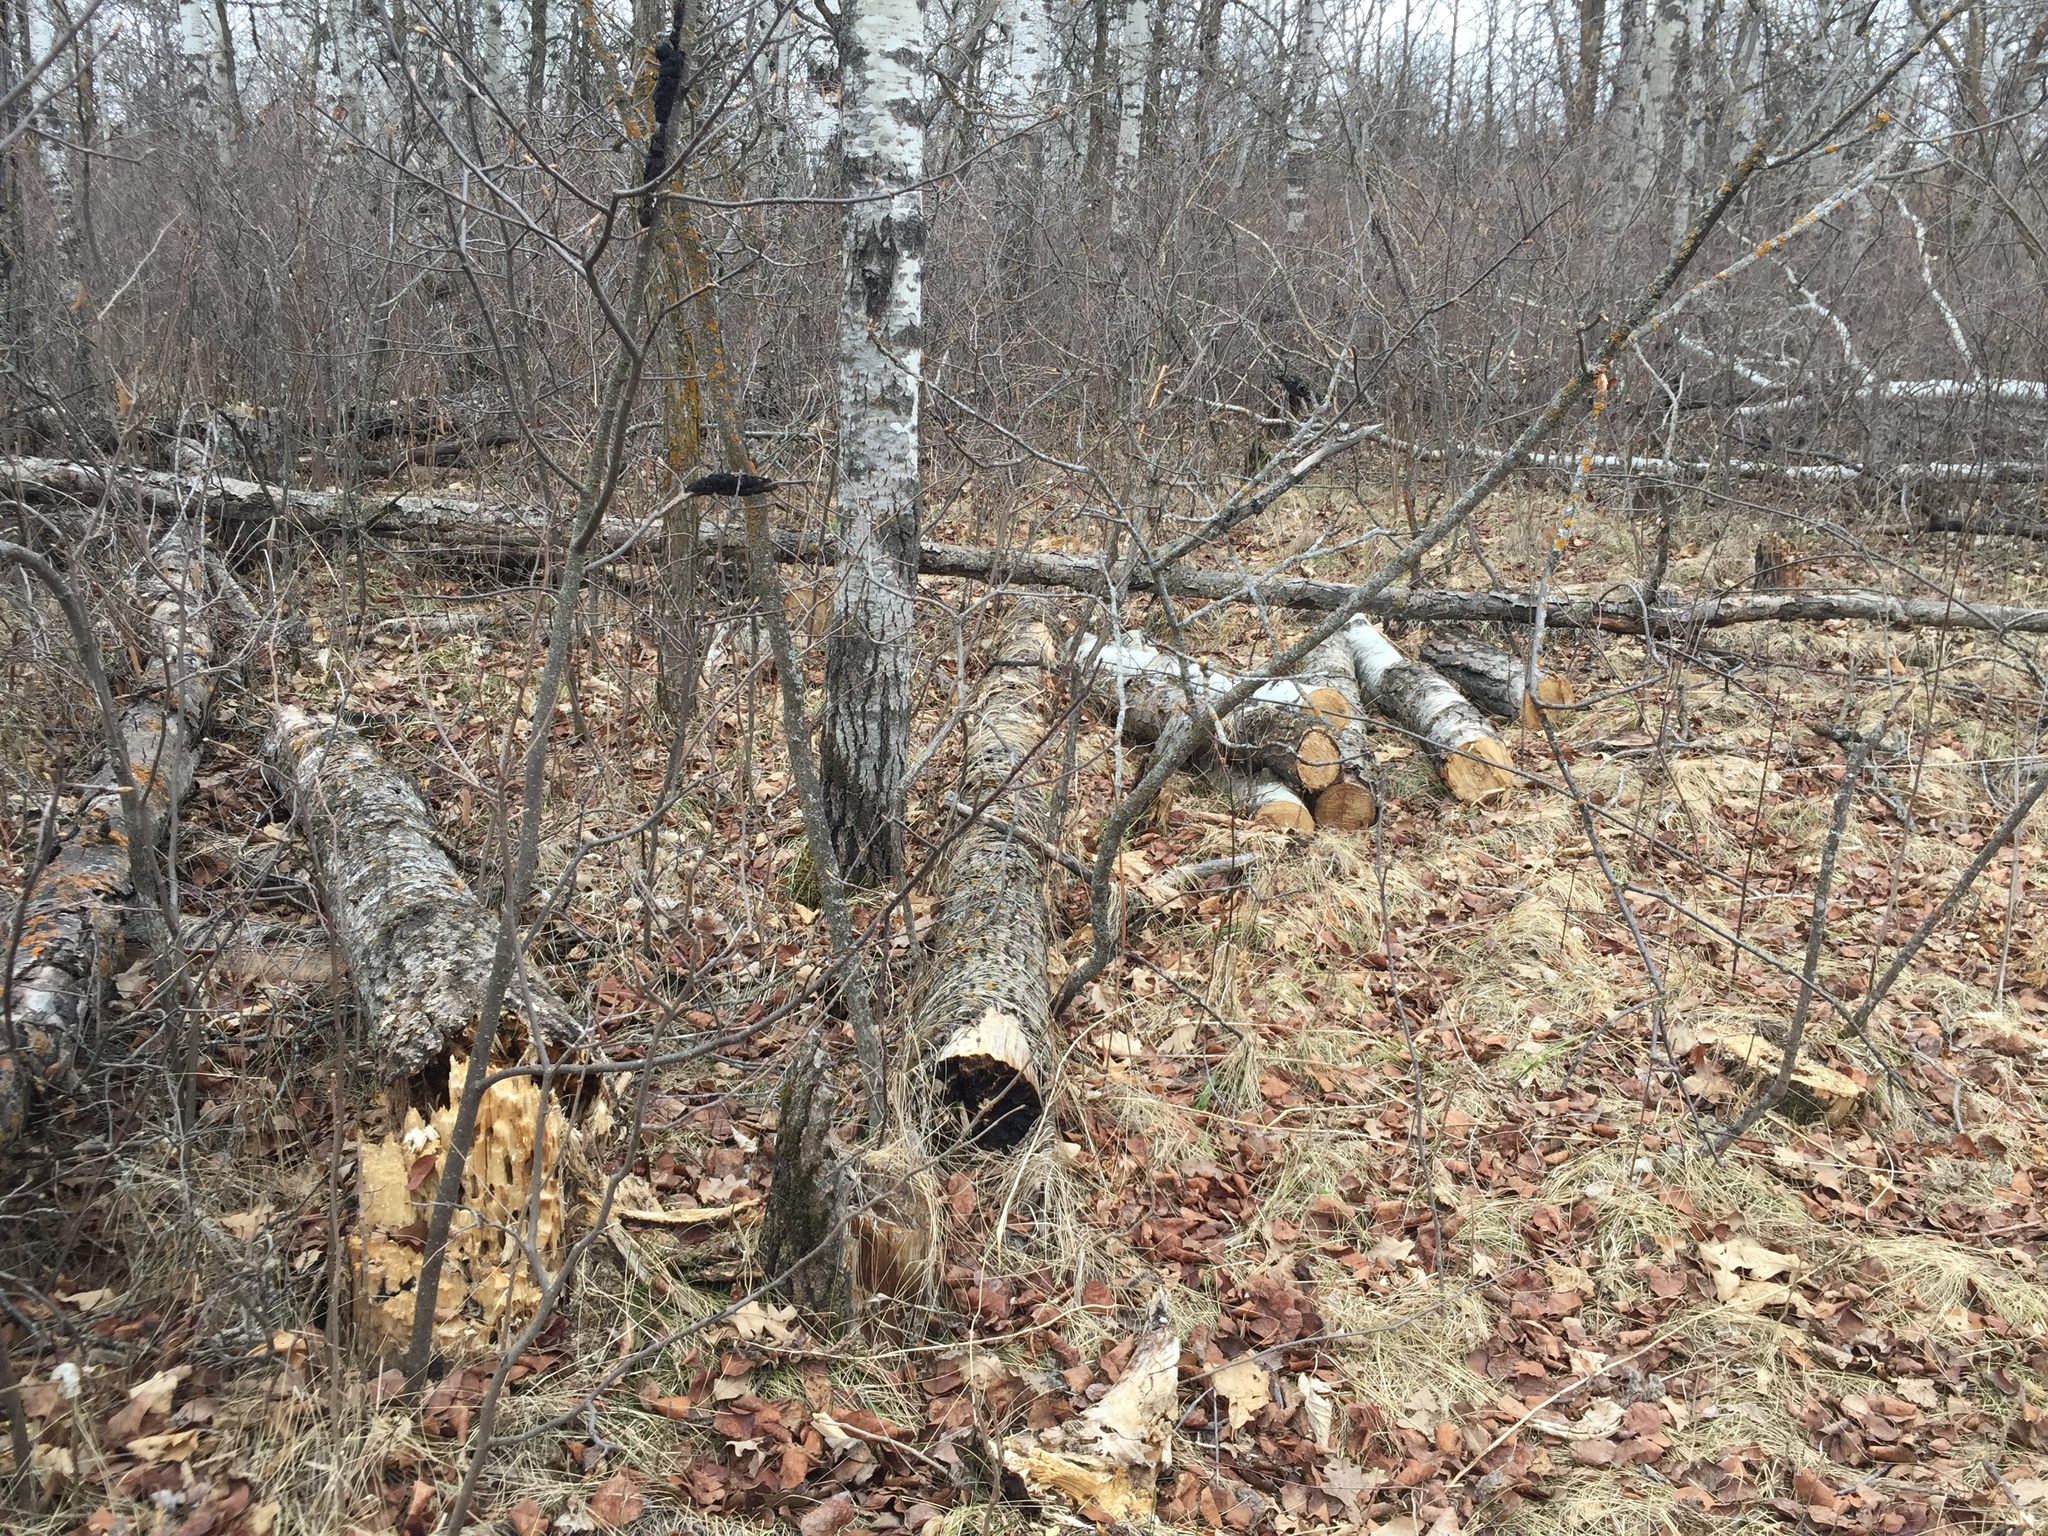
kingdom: Plantae
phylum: Tracheophyta
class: Magnoliopsida
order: Malpighiales
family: Salicaceae
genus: Populus
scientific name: Populus tremuloides
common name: Quaking aspen
